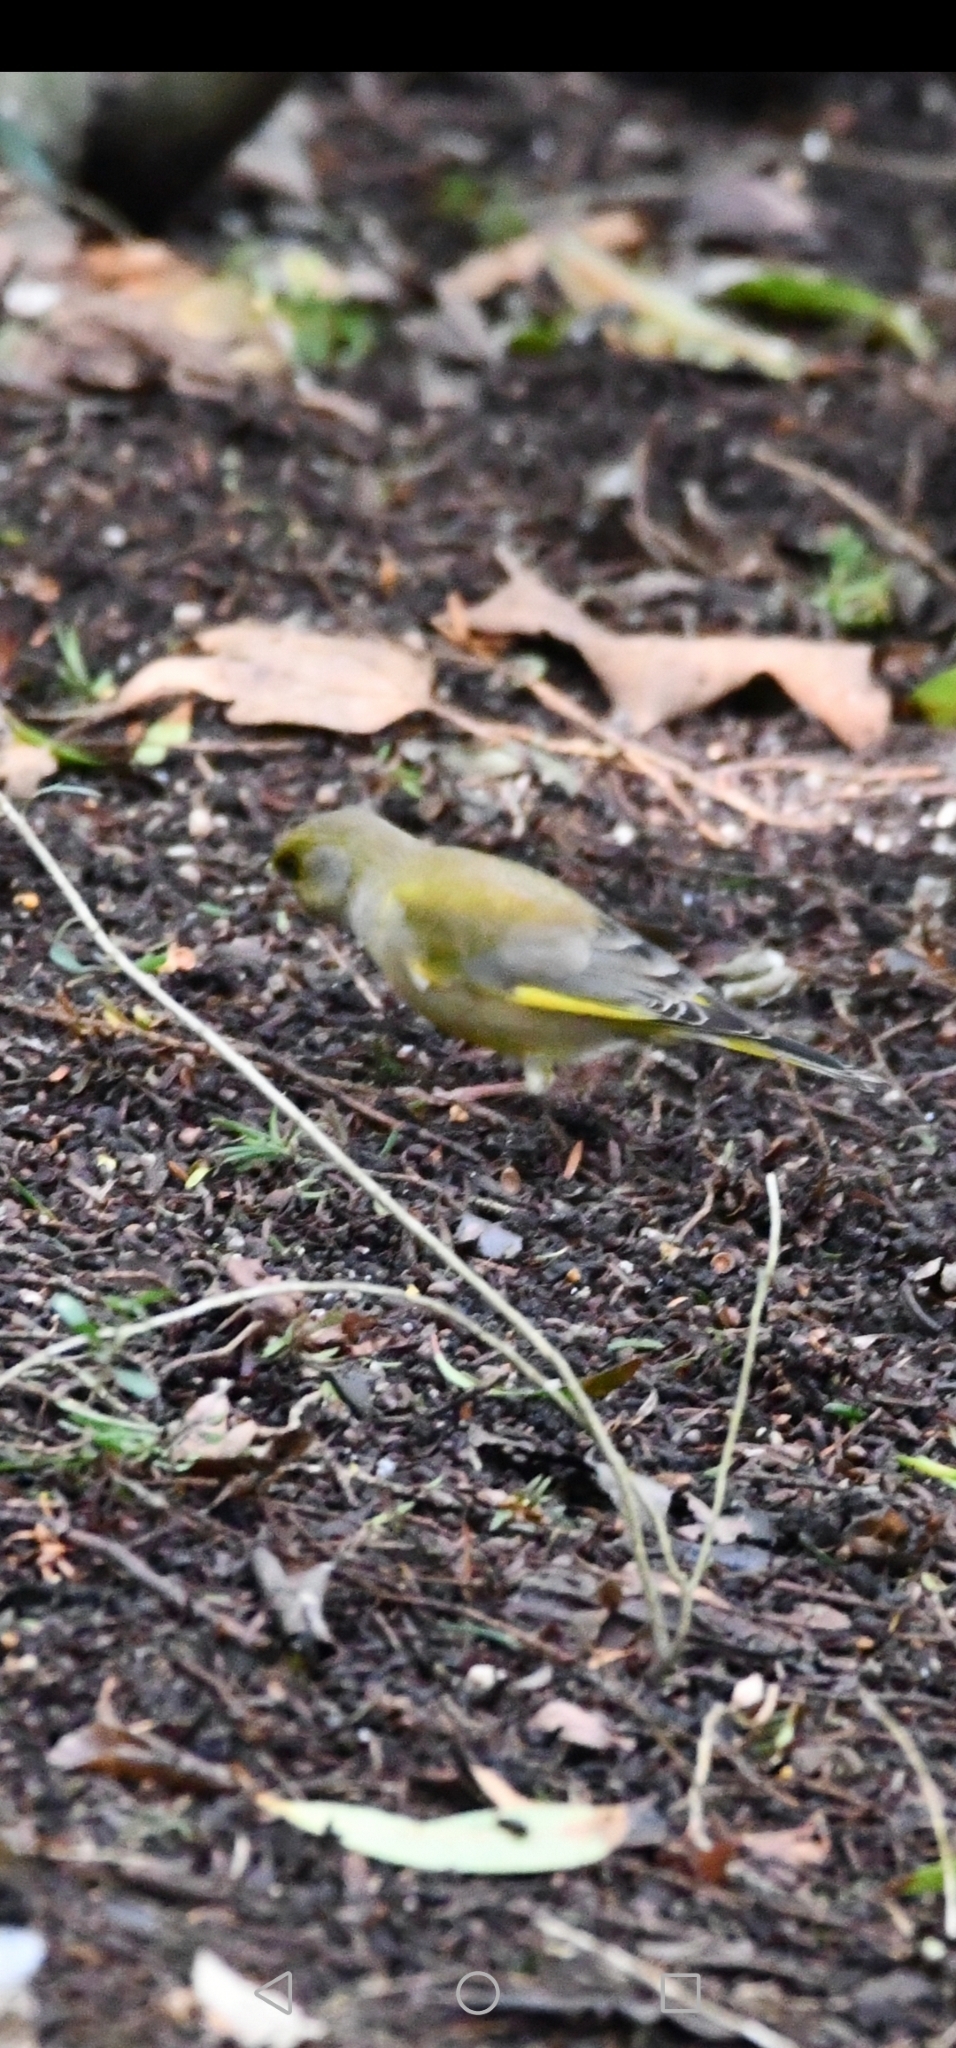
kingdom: Plantae
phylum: Tracheophyta
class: Liliopsida
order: Poales
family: Poaceae
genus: Chloris
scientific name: Chloris chloris
